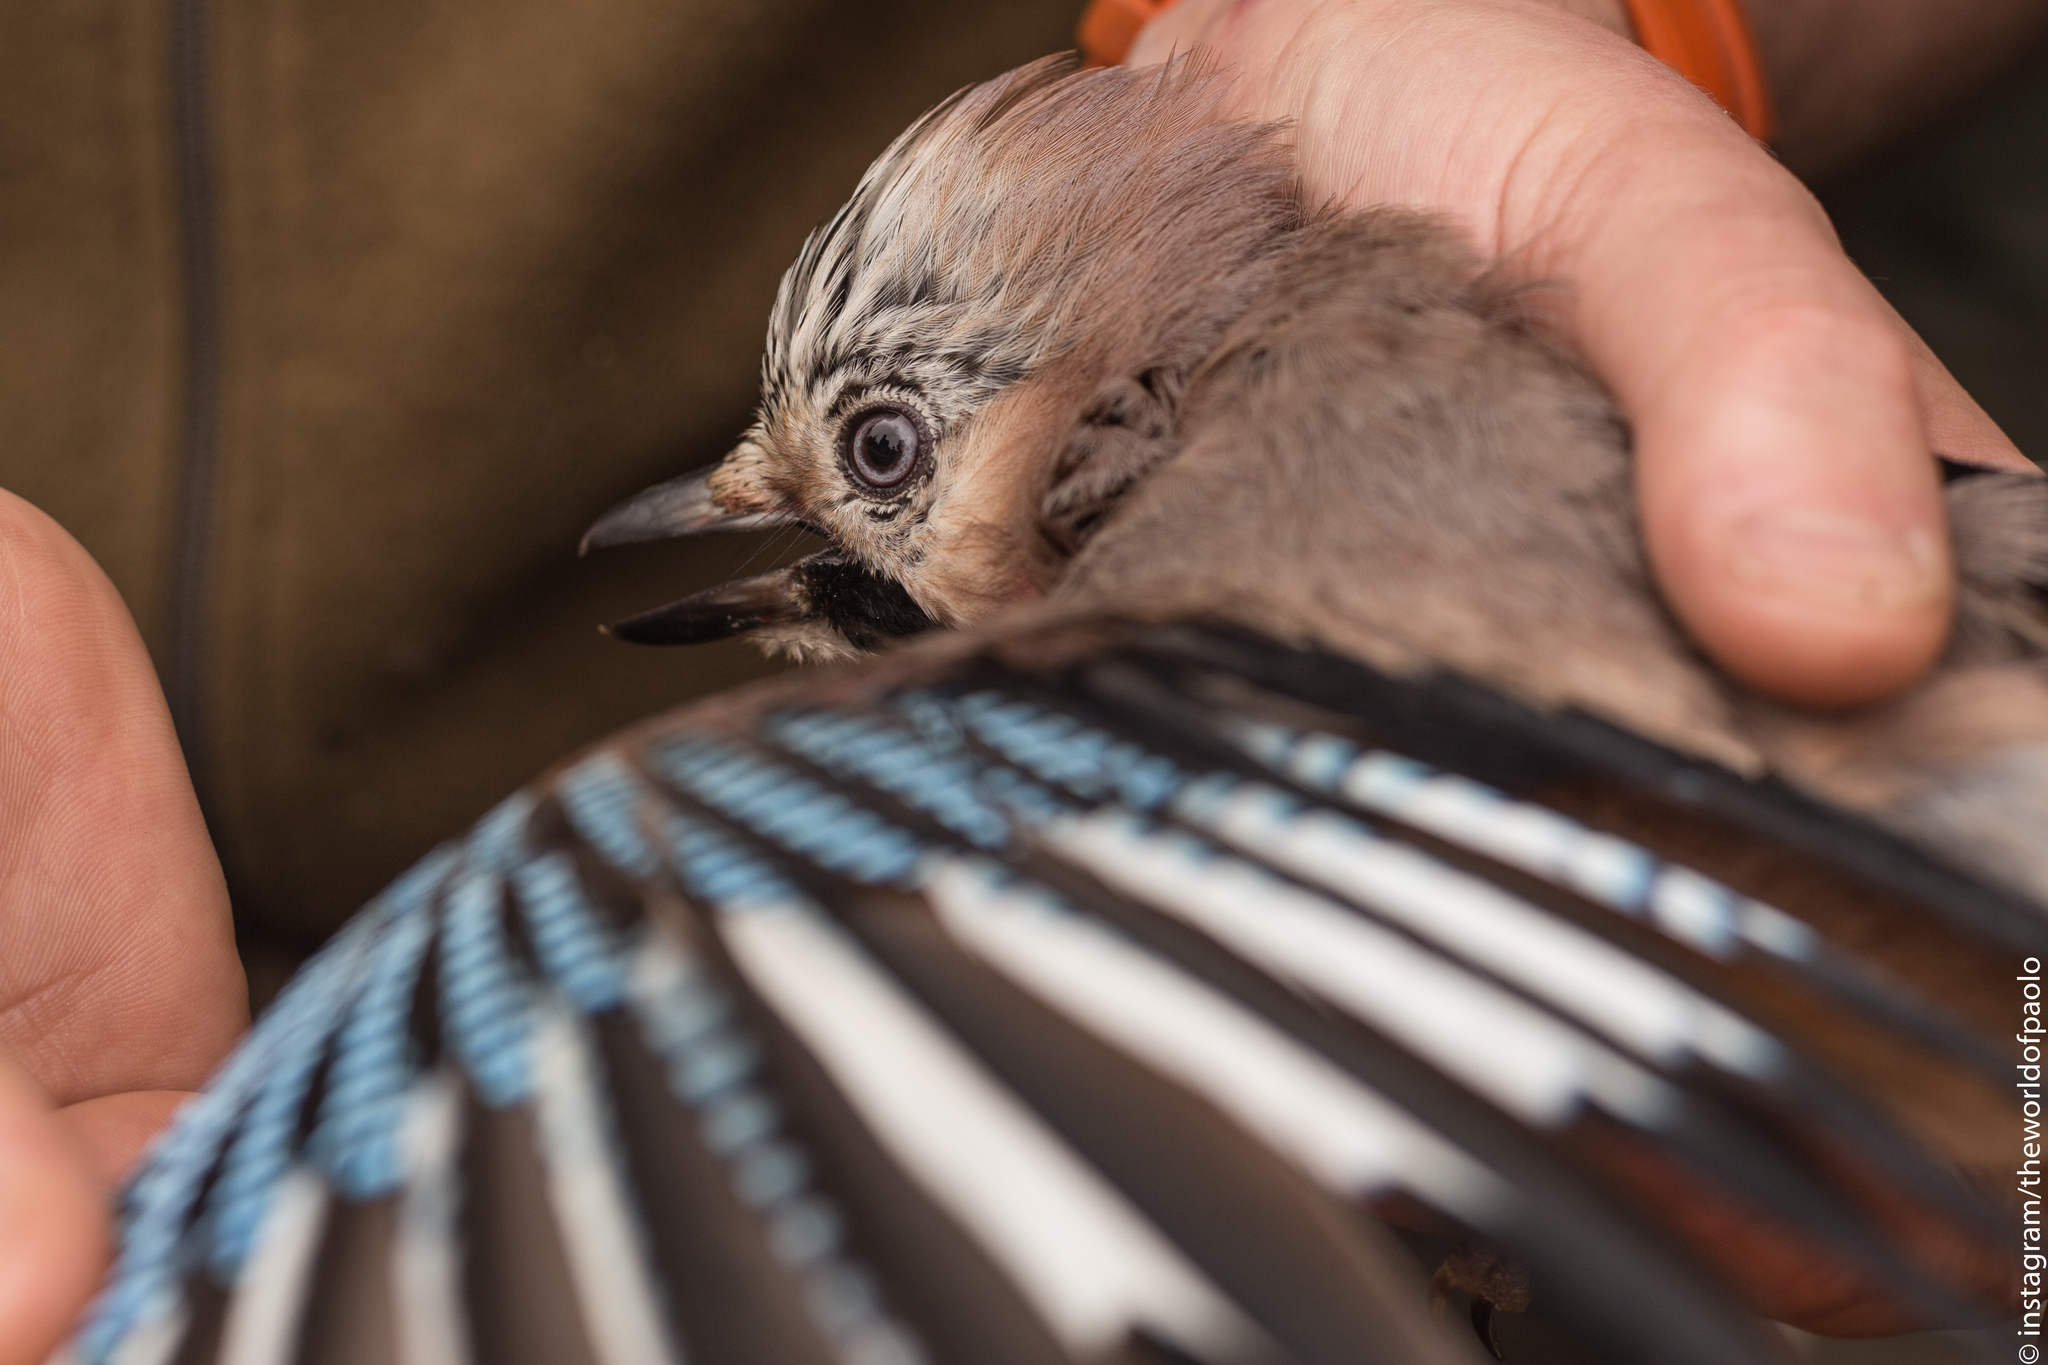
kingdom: Animalia
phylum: Chordata
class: Aves
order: Passeriformes
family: Corvidae
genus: Garrulus
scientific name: Garrulus glandarius
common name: Eurasian jay
